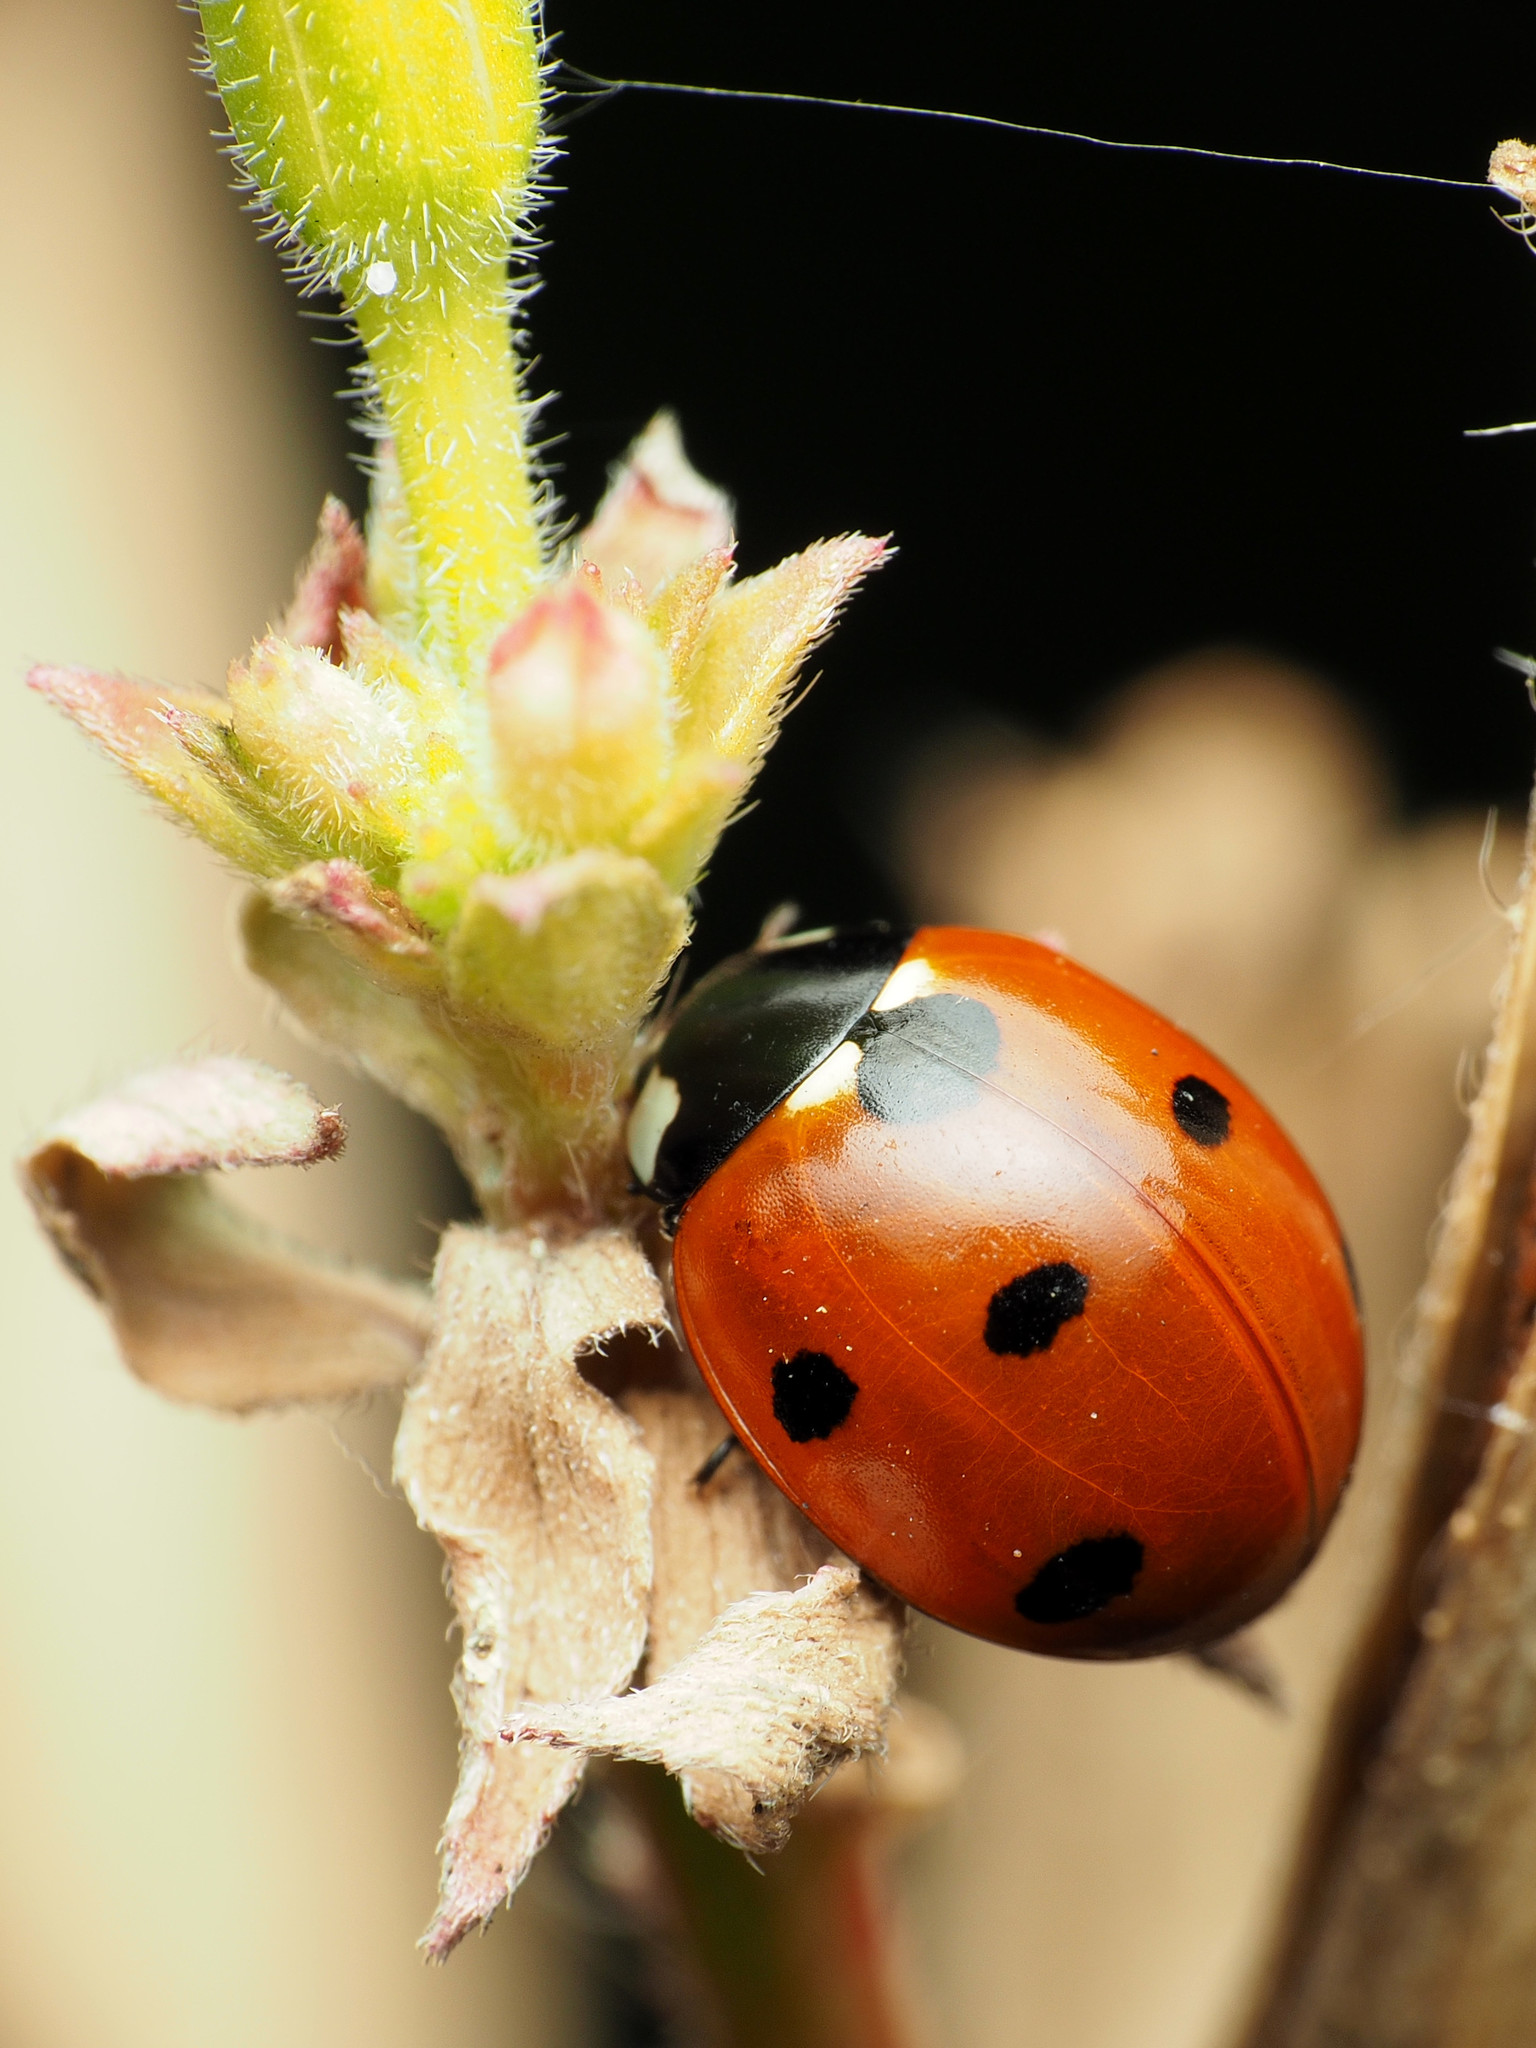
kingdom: Animalia
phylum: Arthropoda
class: Insecta
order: Coleoptera
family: Coccinellidae
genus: Coccinella
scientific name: Coccinella septempunctata
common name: Sevenspotted lady beetle
